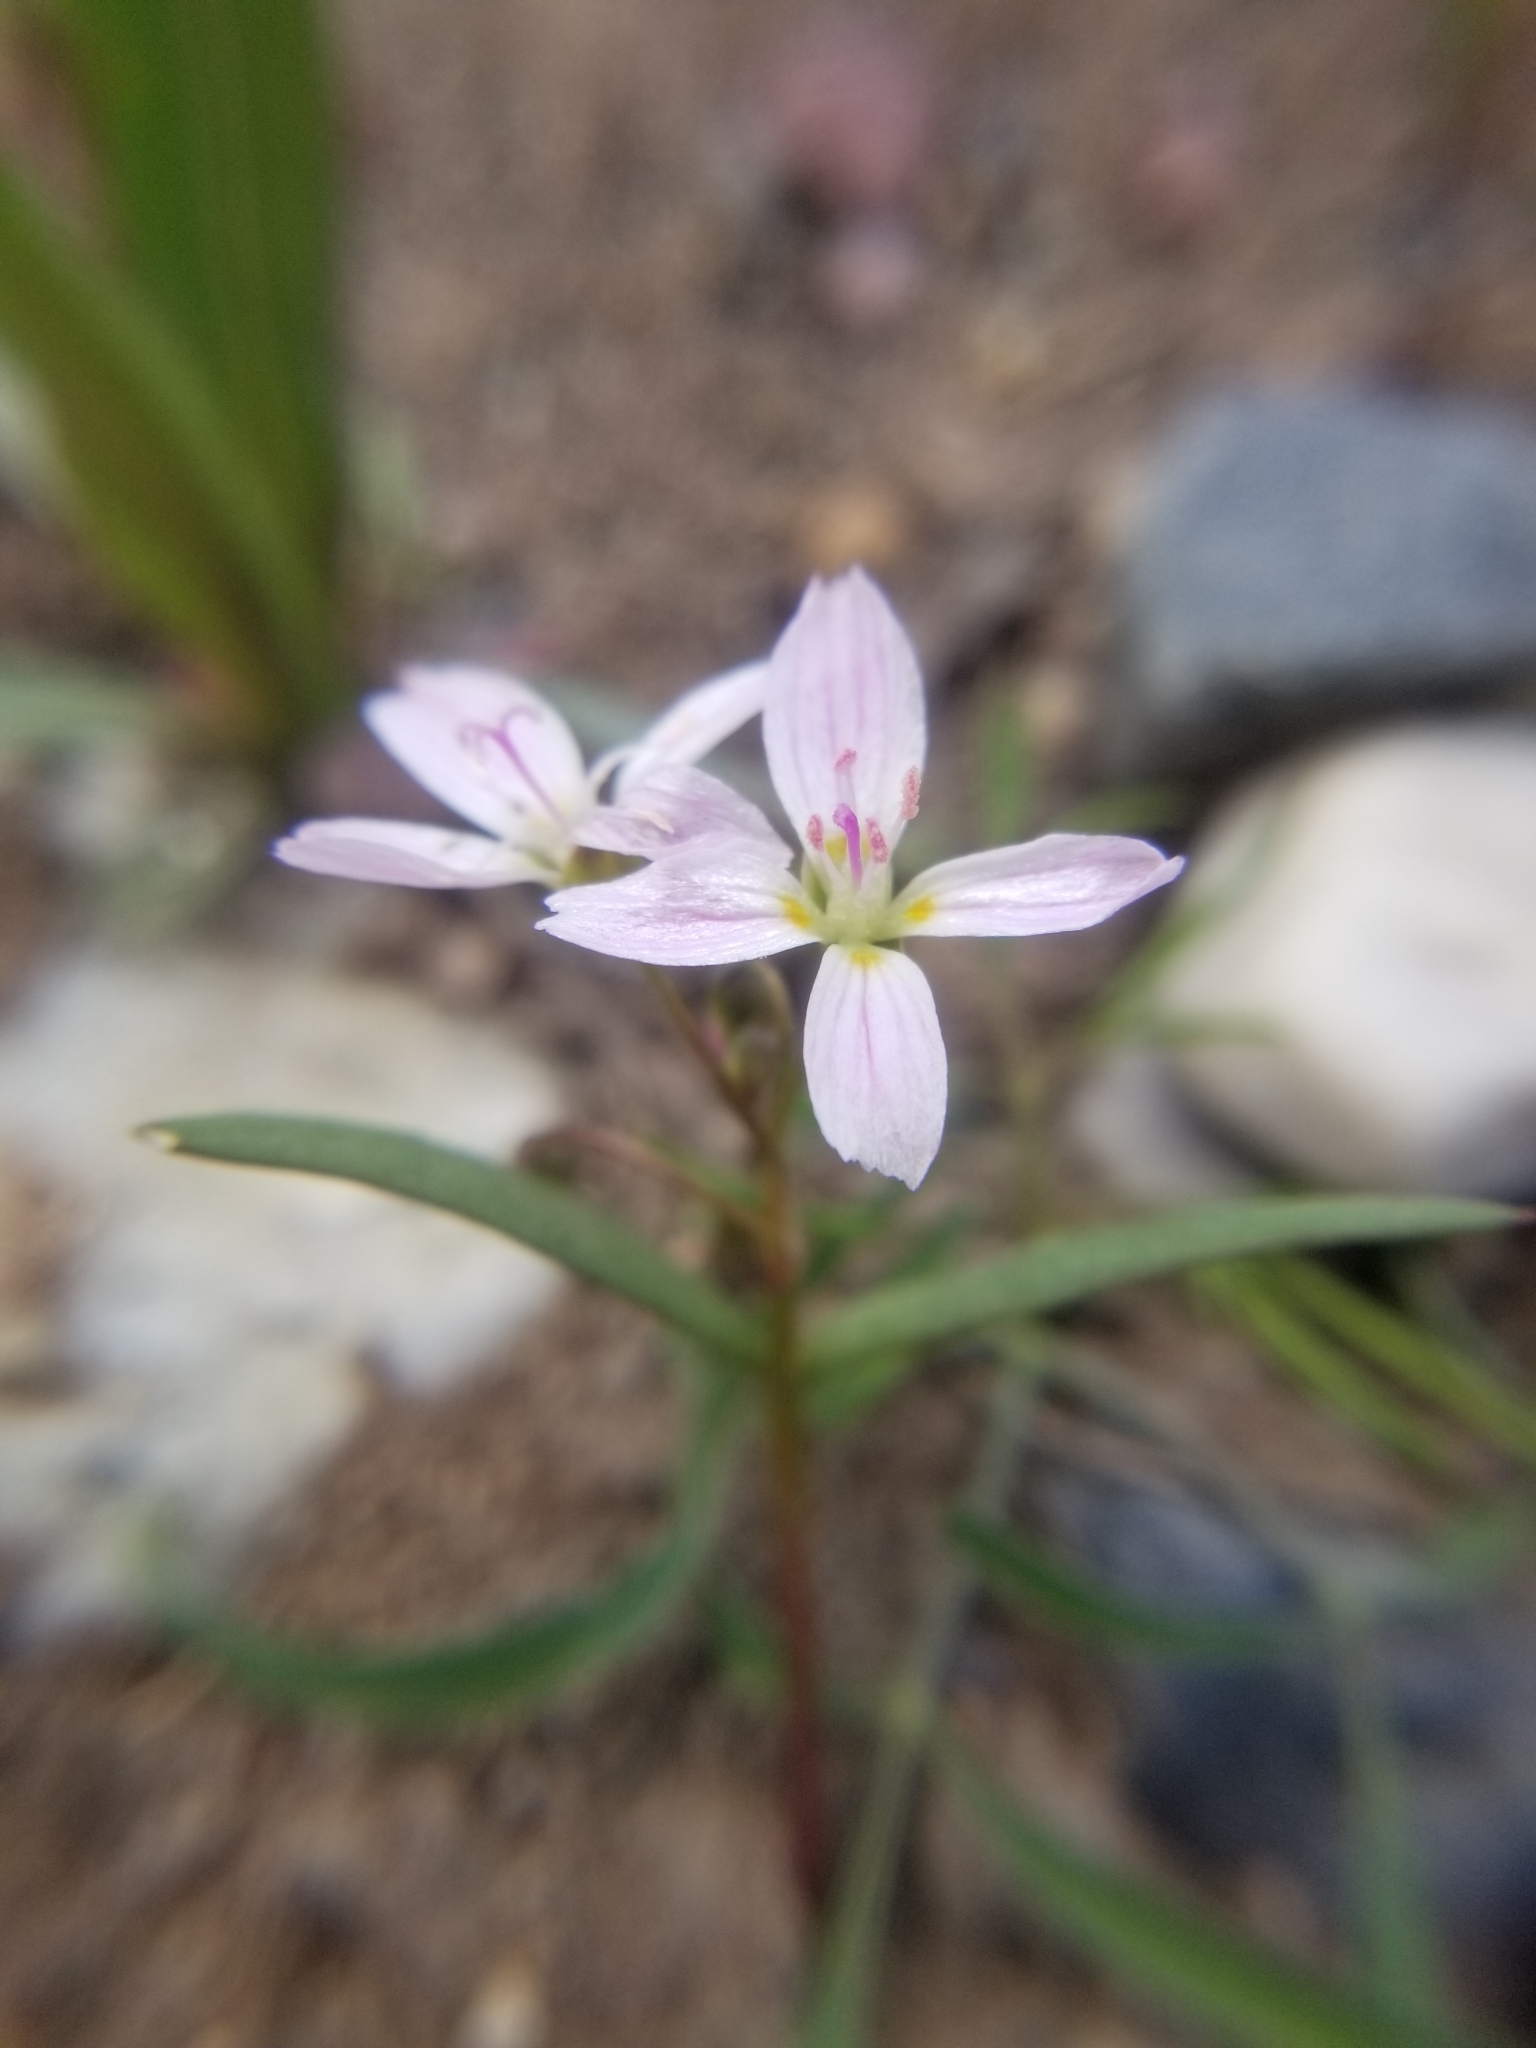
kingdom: Plantae
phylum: Tracheophyta
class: Magnoliopsida
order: Caryophyllales
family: Montiaceae
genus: Claytonia
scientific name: Claytonia lanceolata
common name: Western spring-beauty
